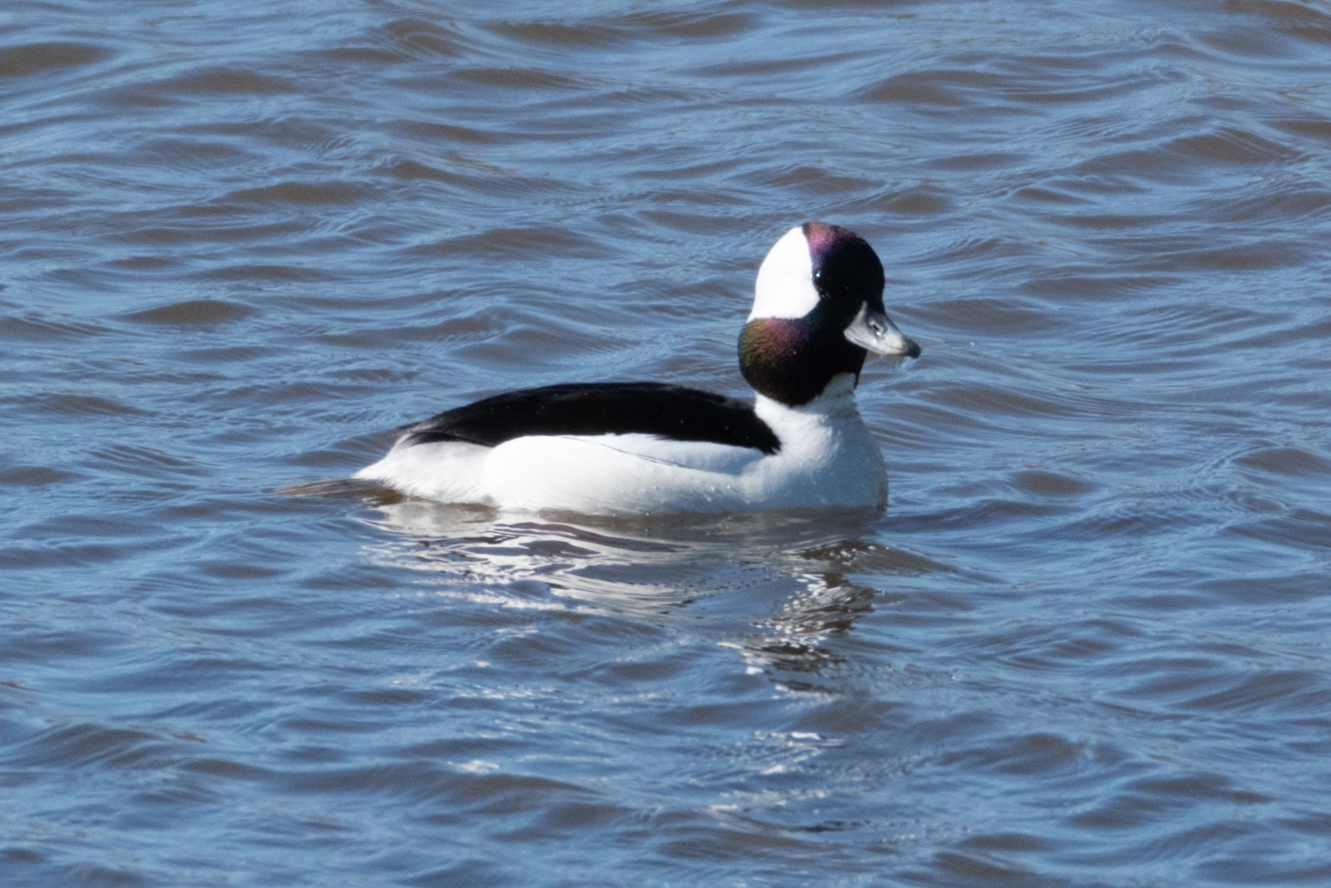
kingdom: Animalia
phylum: Chordata
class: Aves
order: Anseriformes
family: Anatidae
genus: Bucephala
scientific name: Bucephala albeola
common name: Bufflehead
